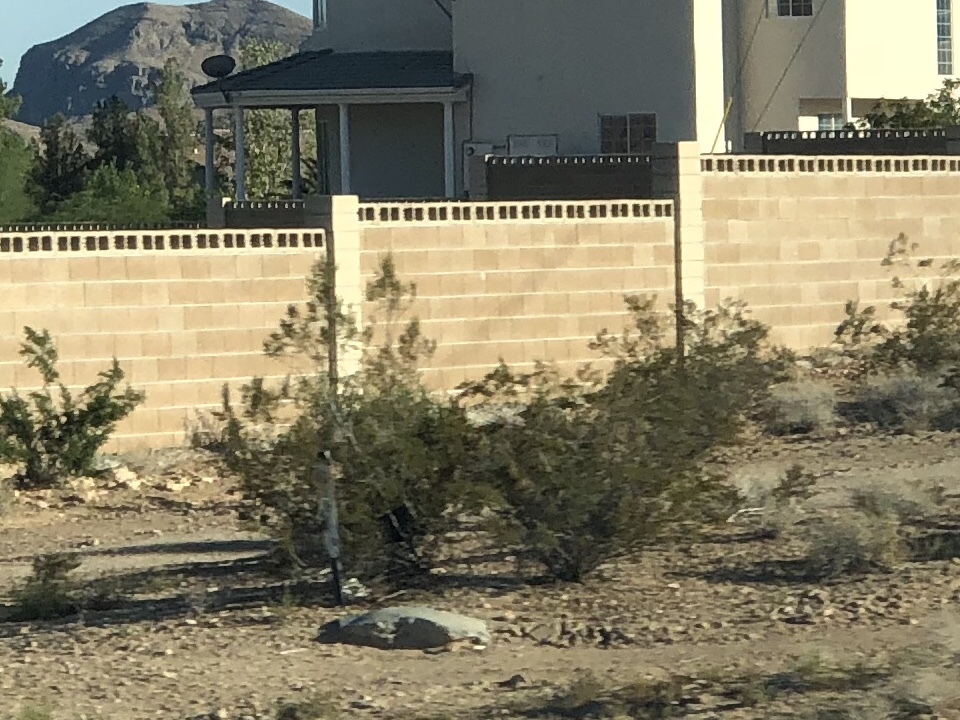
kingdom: Plantae
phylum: Tracheophyta
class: Magnoliopsida
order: Zygophyllales
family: Zygophyllaceae
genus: Larrea
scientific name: Larrea tridentata
